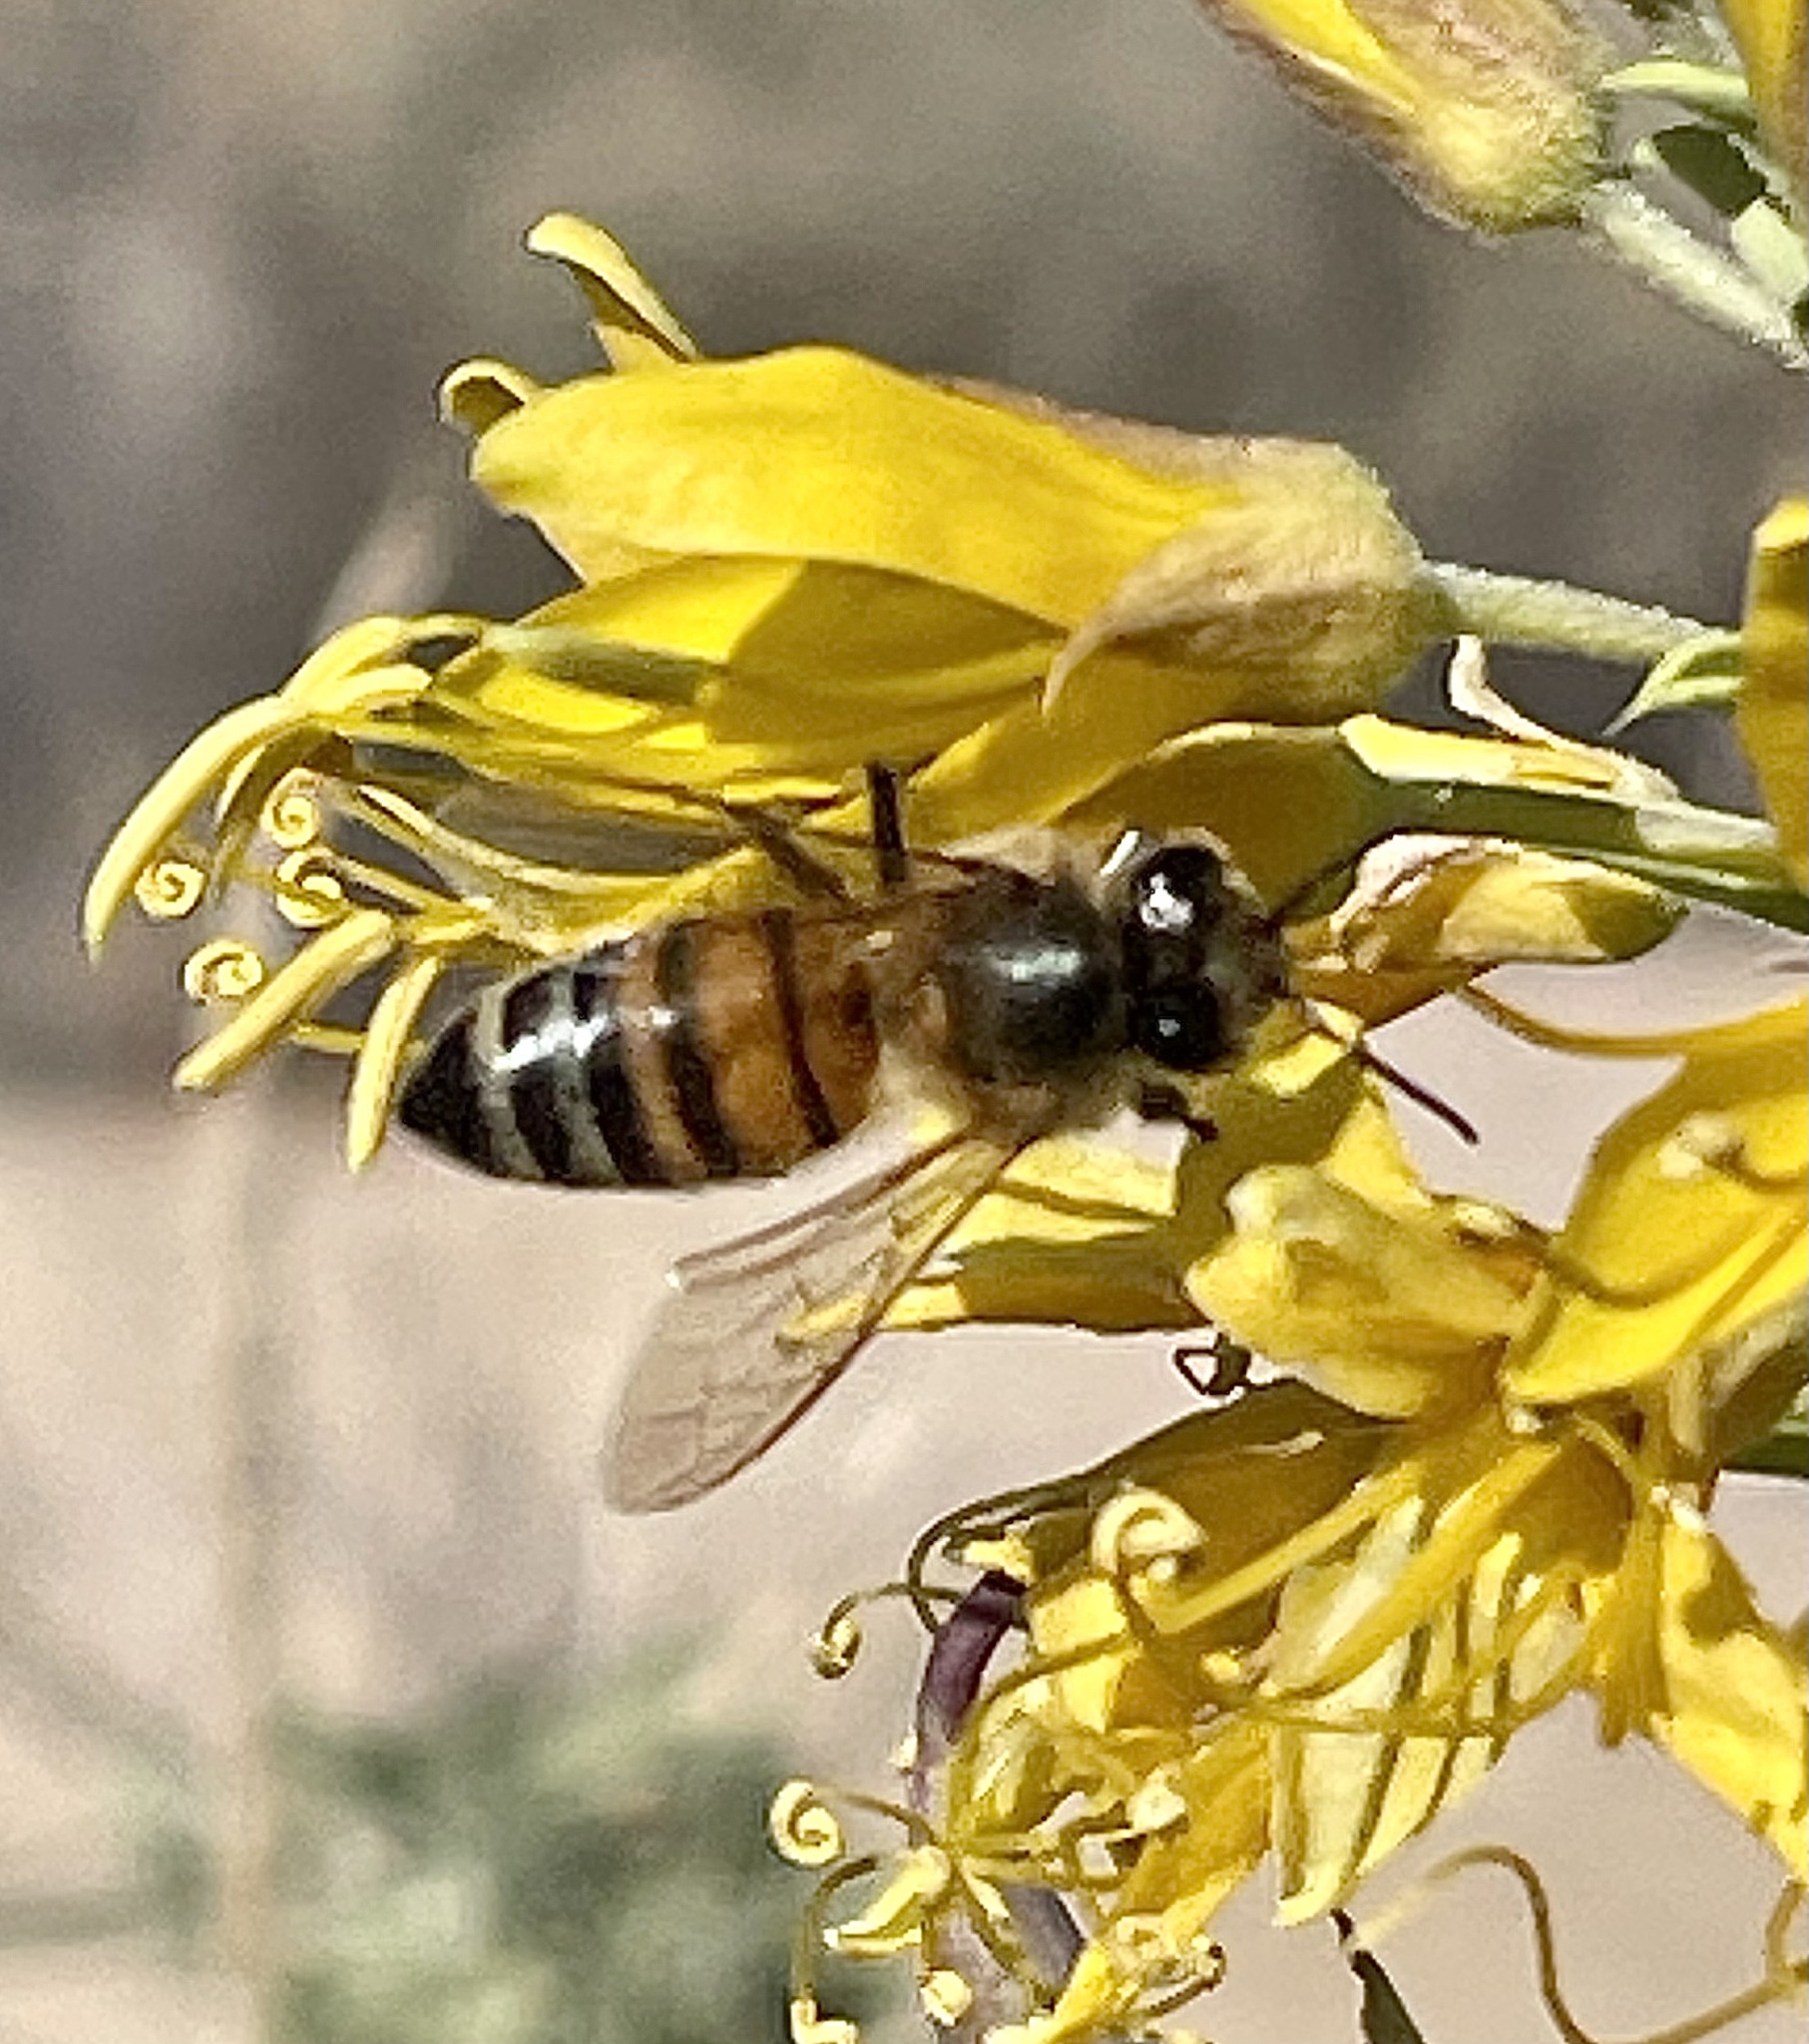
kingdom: Animalia
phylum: Arthropoda
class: Insecta
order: Hymenoptera
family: Apidae
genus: Apis
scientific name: Apis mellifera
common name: Honey bee
